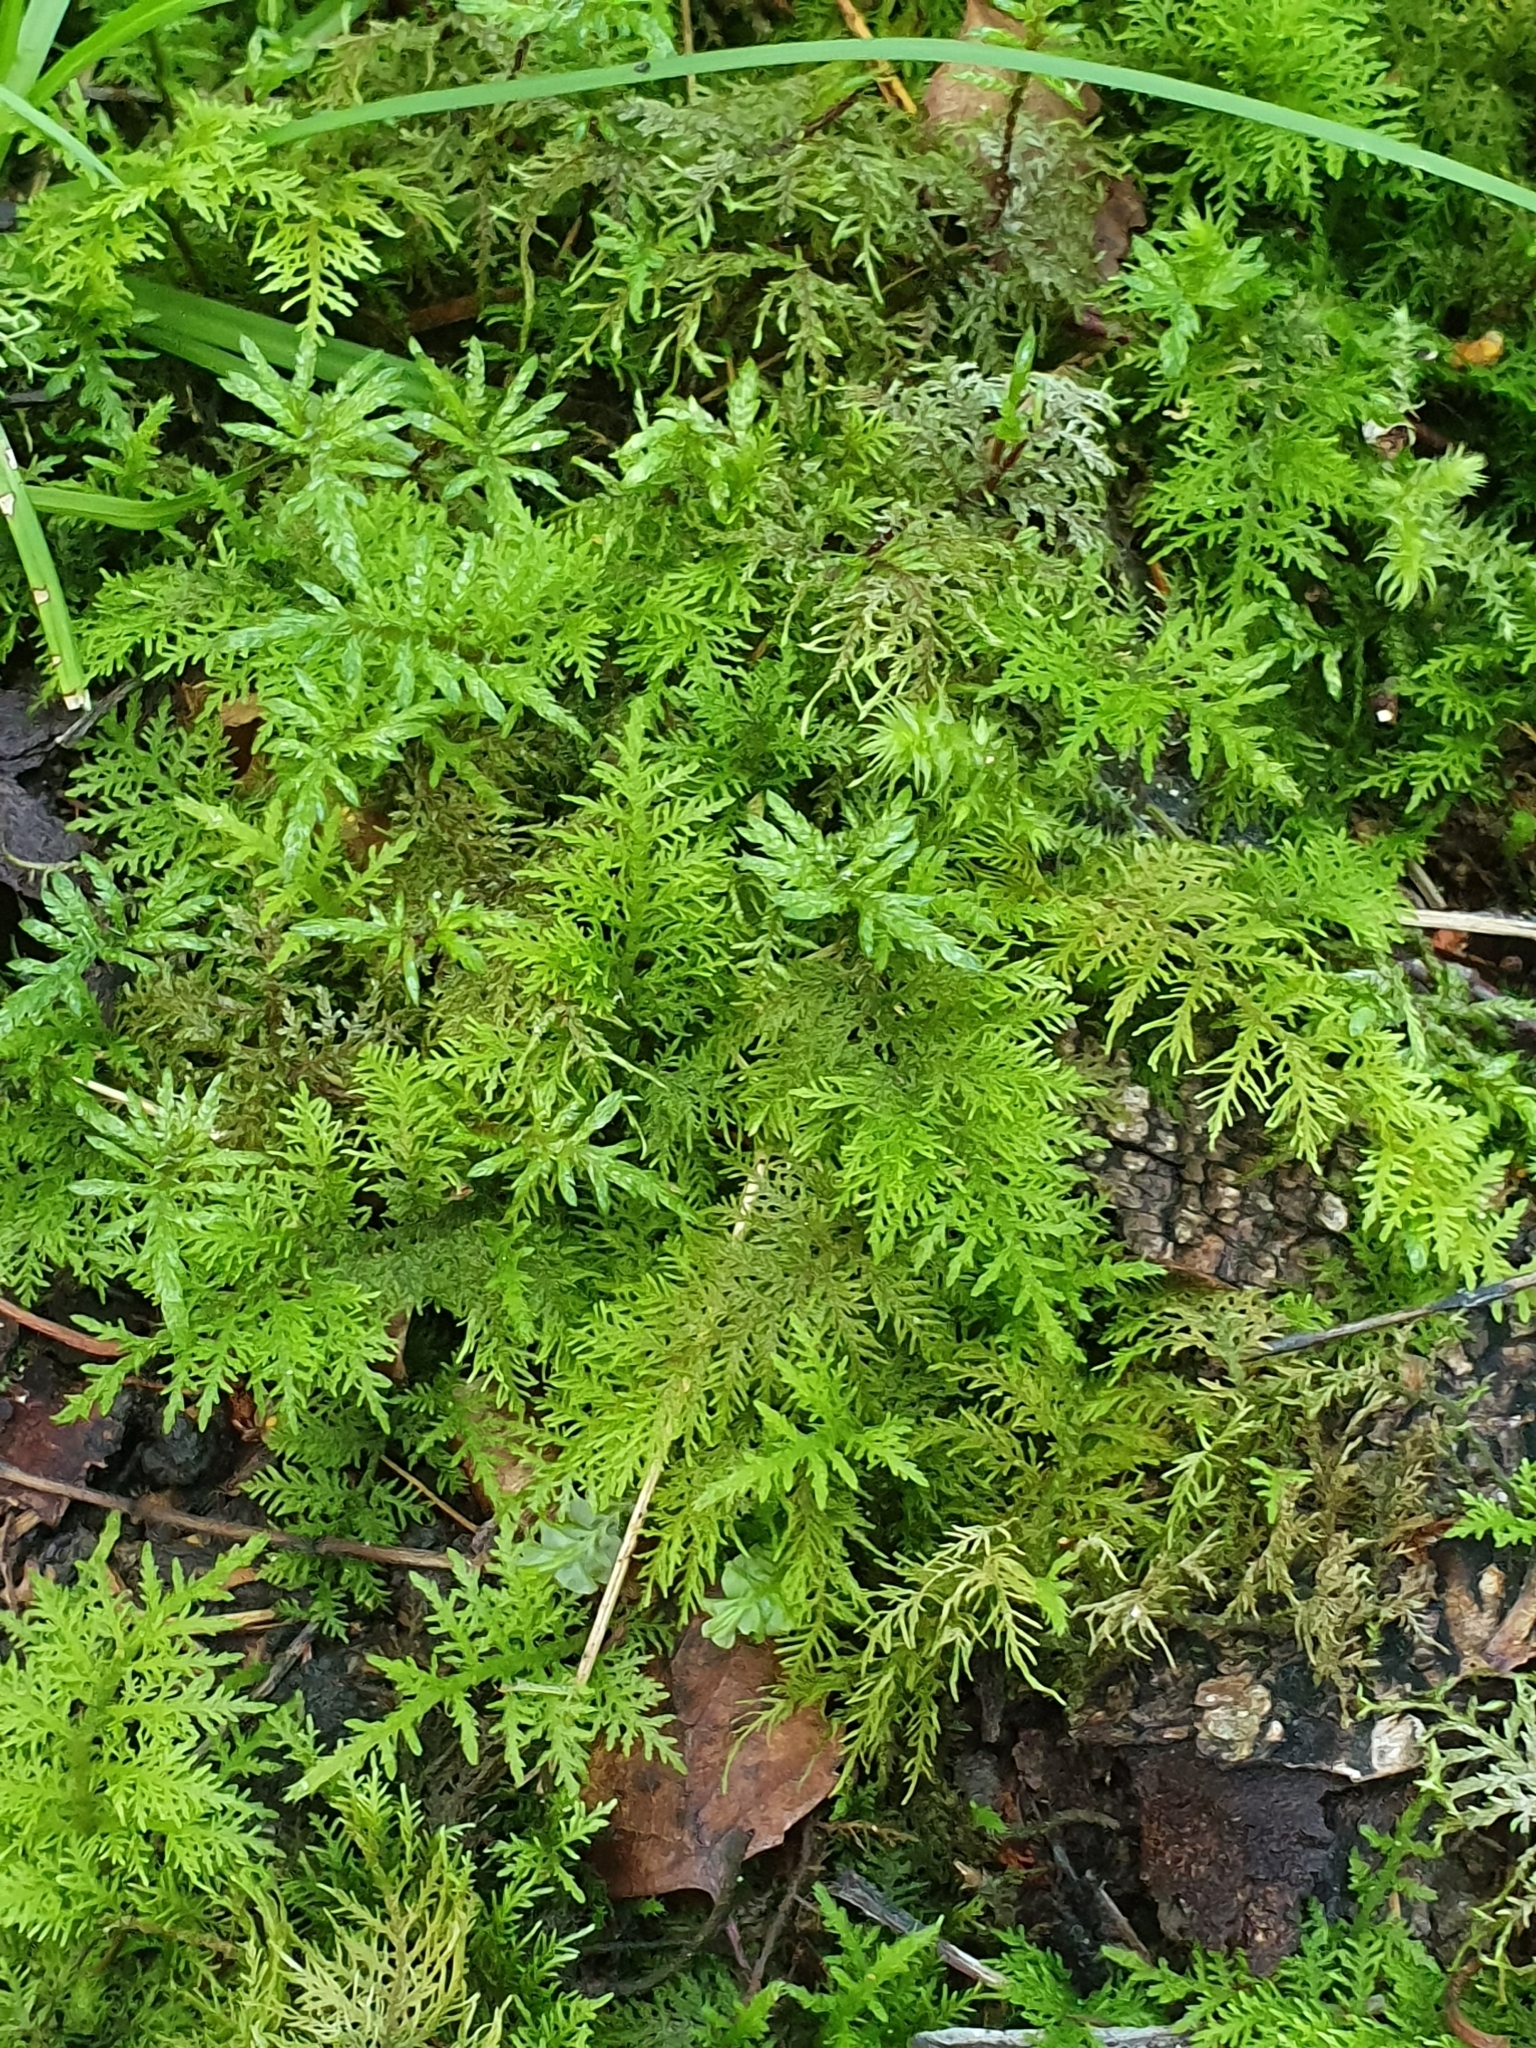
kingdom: Plantae
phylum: Bryophyta
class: Bryopsida
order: Hypnales
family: Thuidiaceae
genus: Thuidium
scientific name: Thuidium tamariscinum
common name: Common tamarisk-moss
